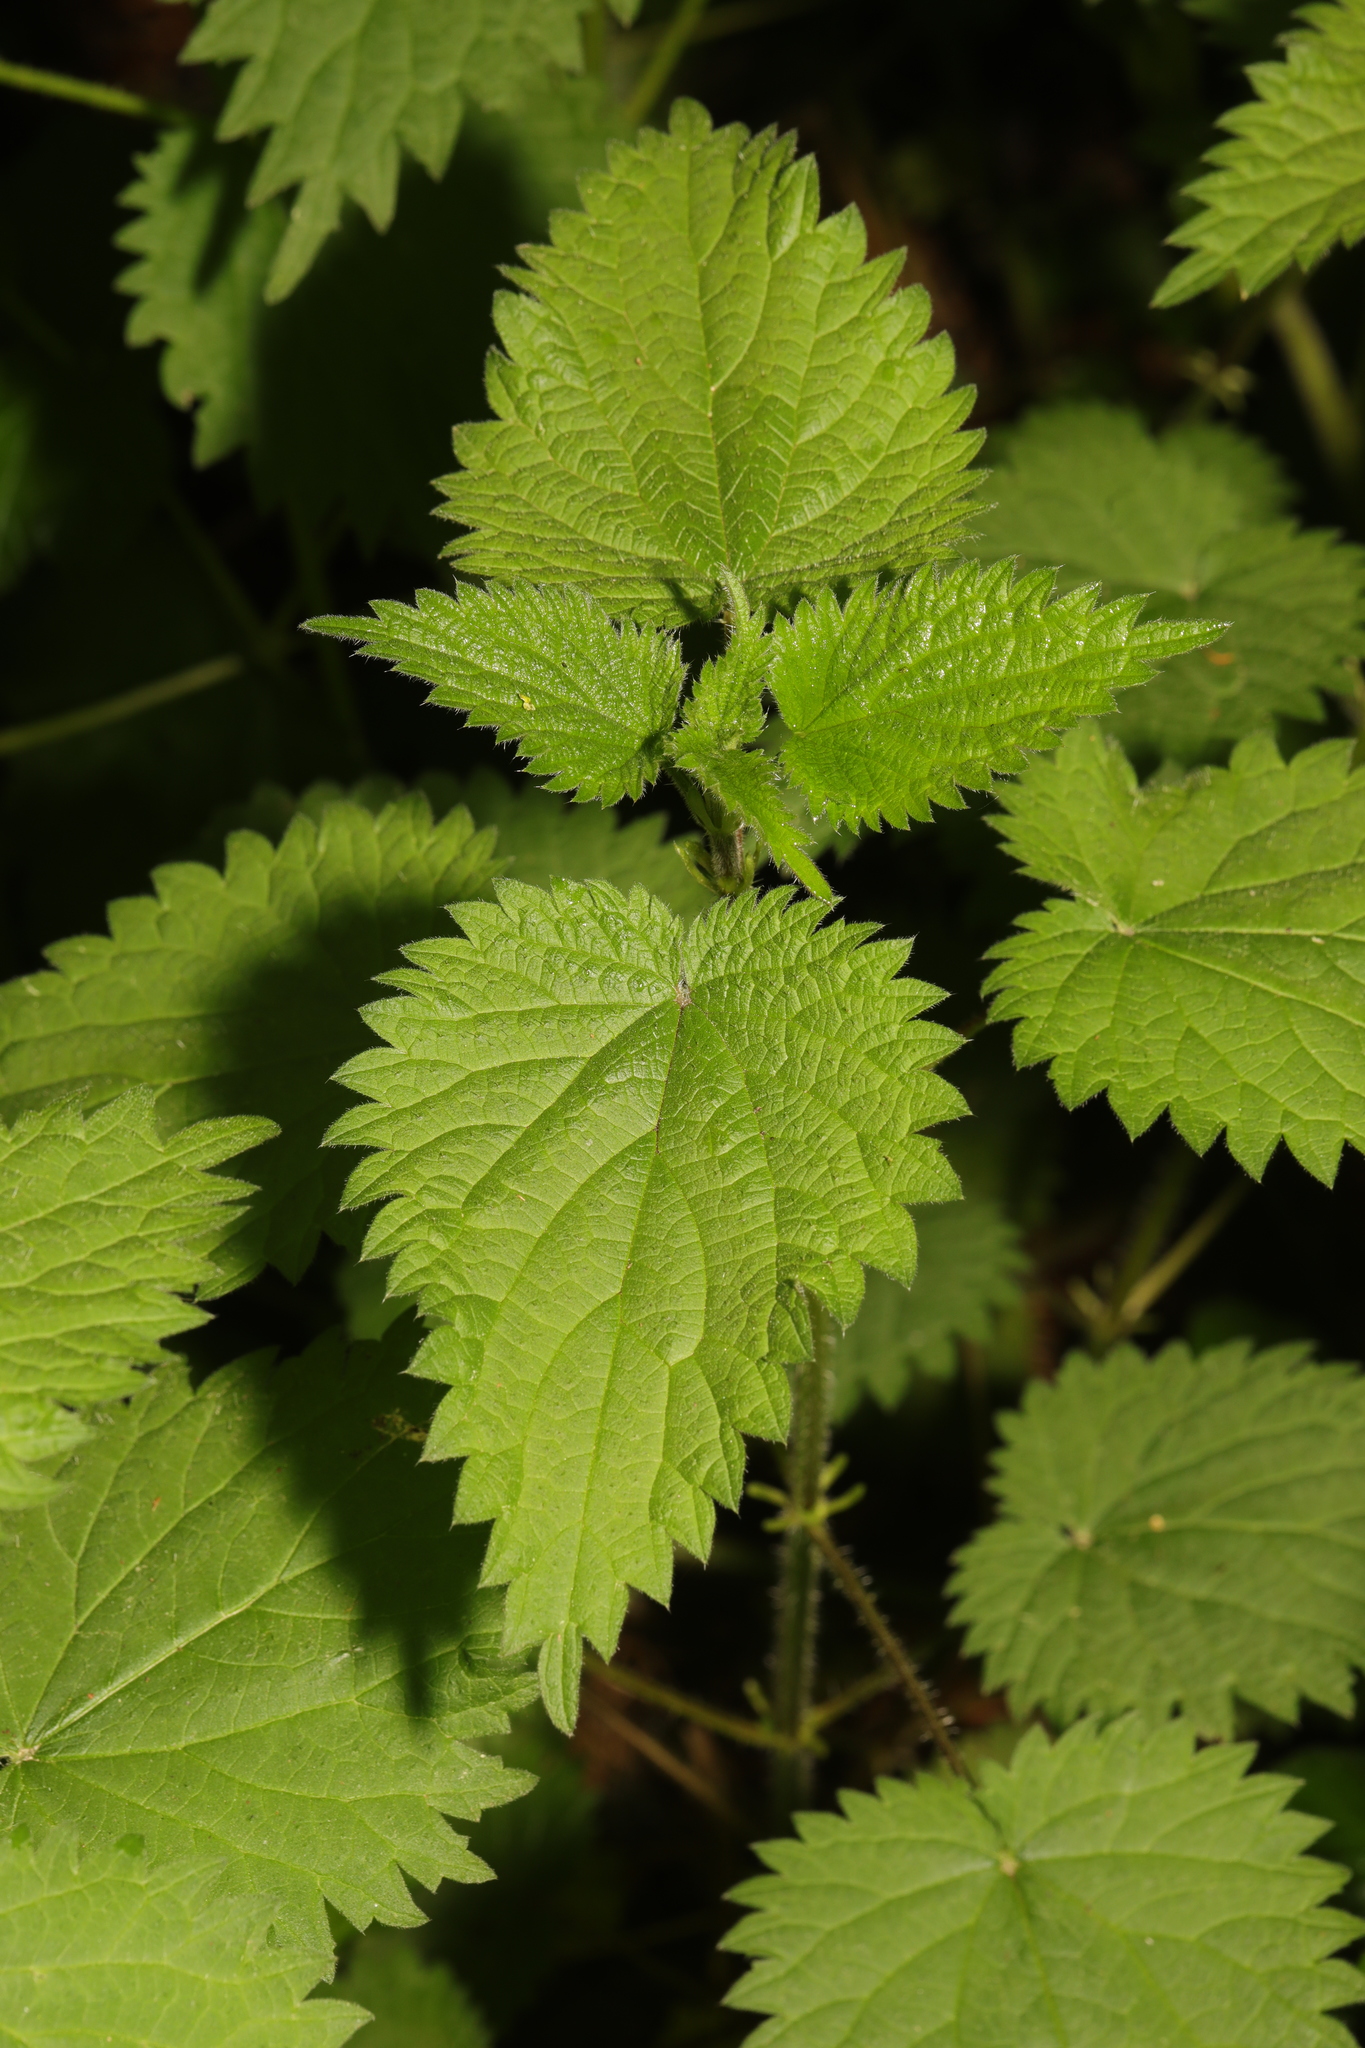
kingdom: Plantae
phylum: Tracheophyta
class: Magnoliopsida
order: Rosales
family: Urticaceae
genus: Urtica
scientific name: Urtica dioica
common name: Common nettle
